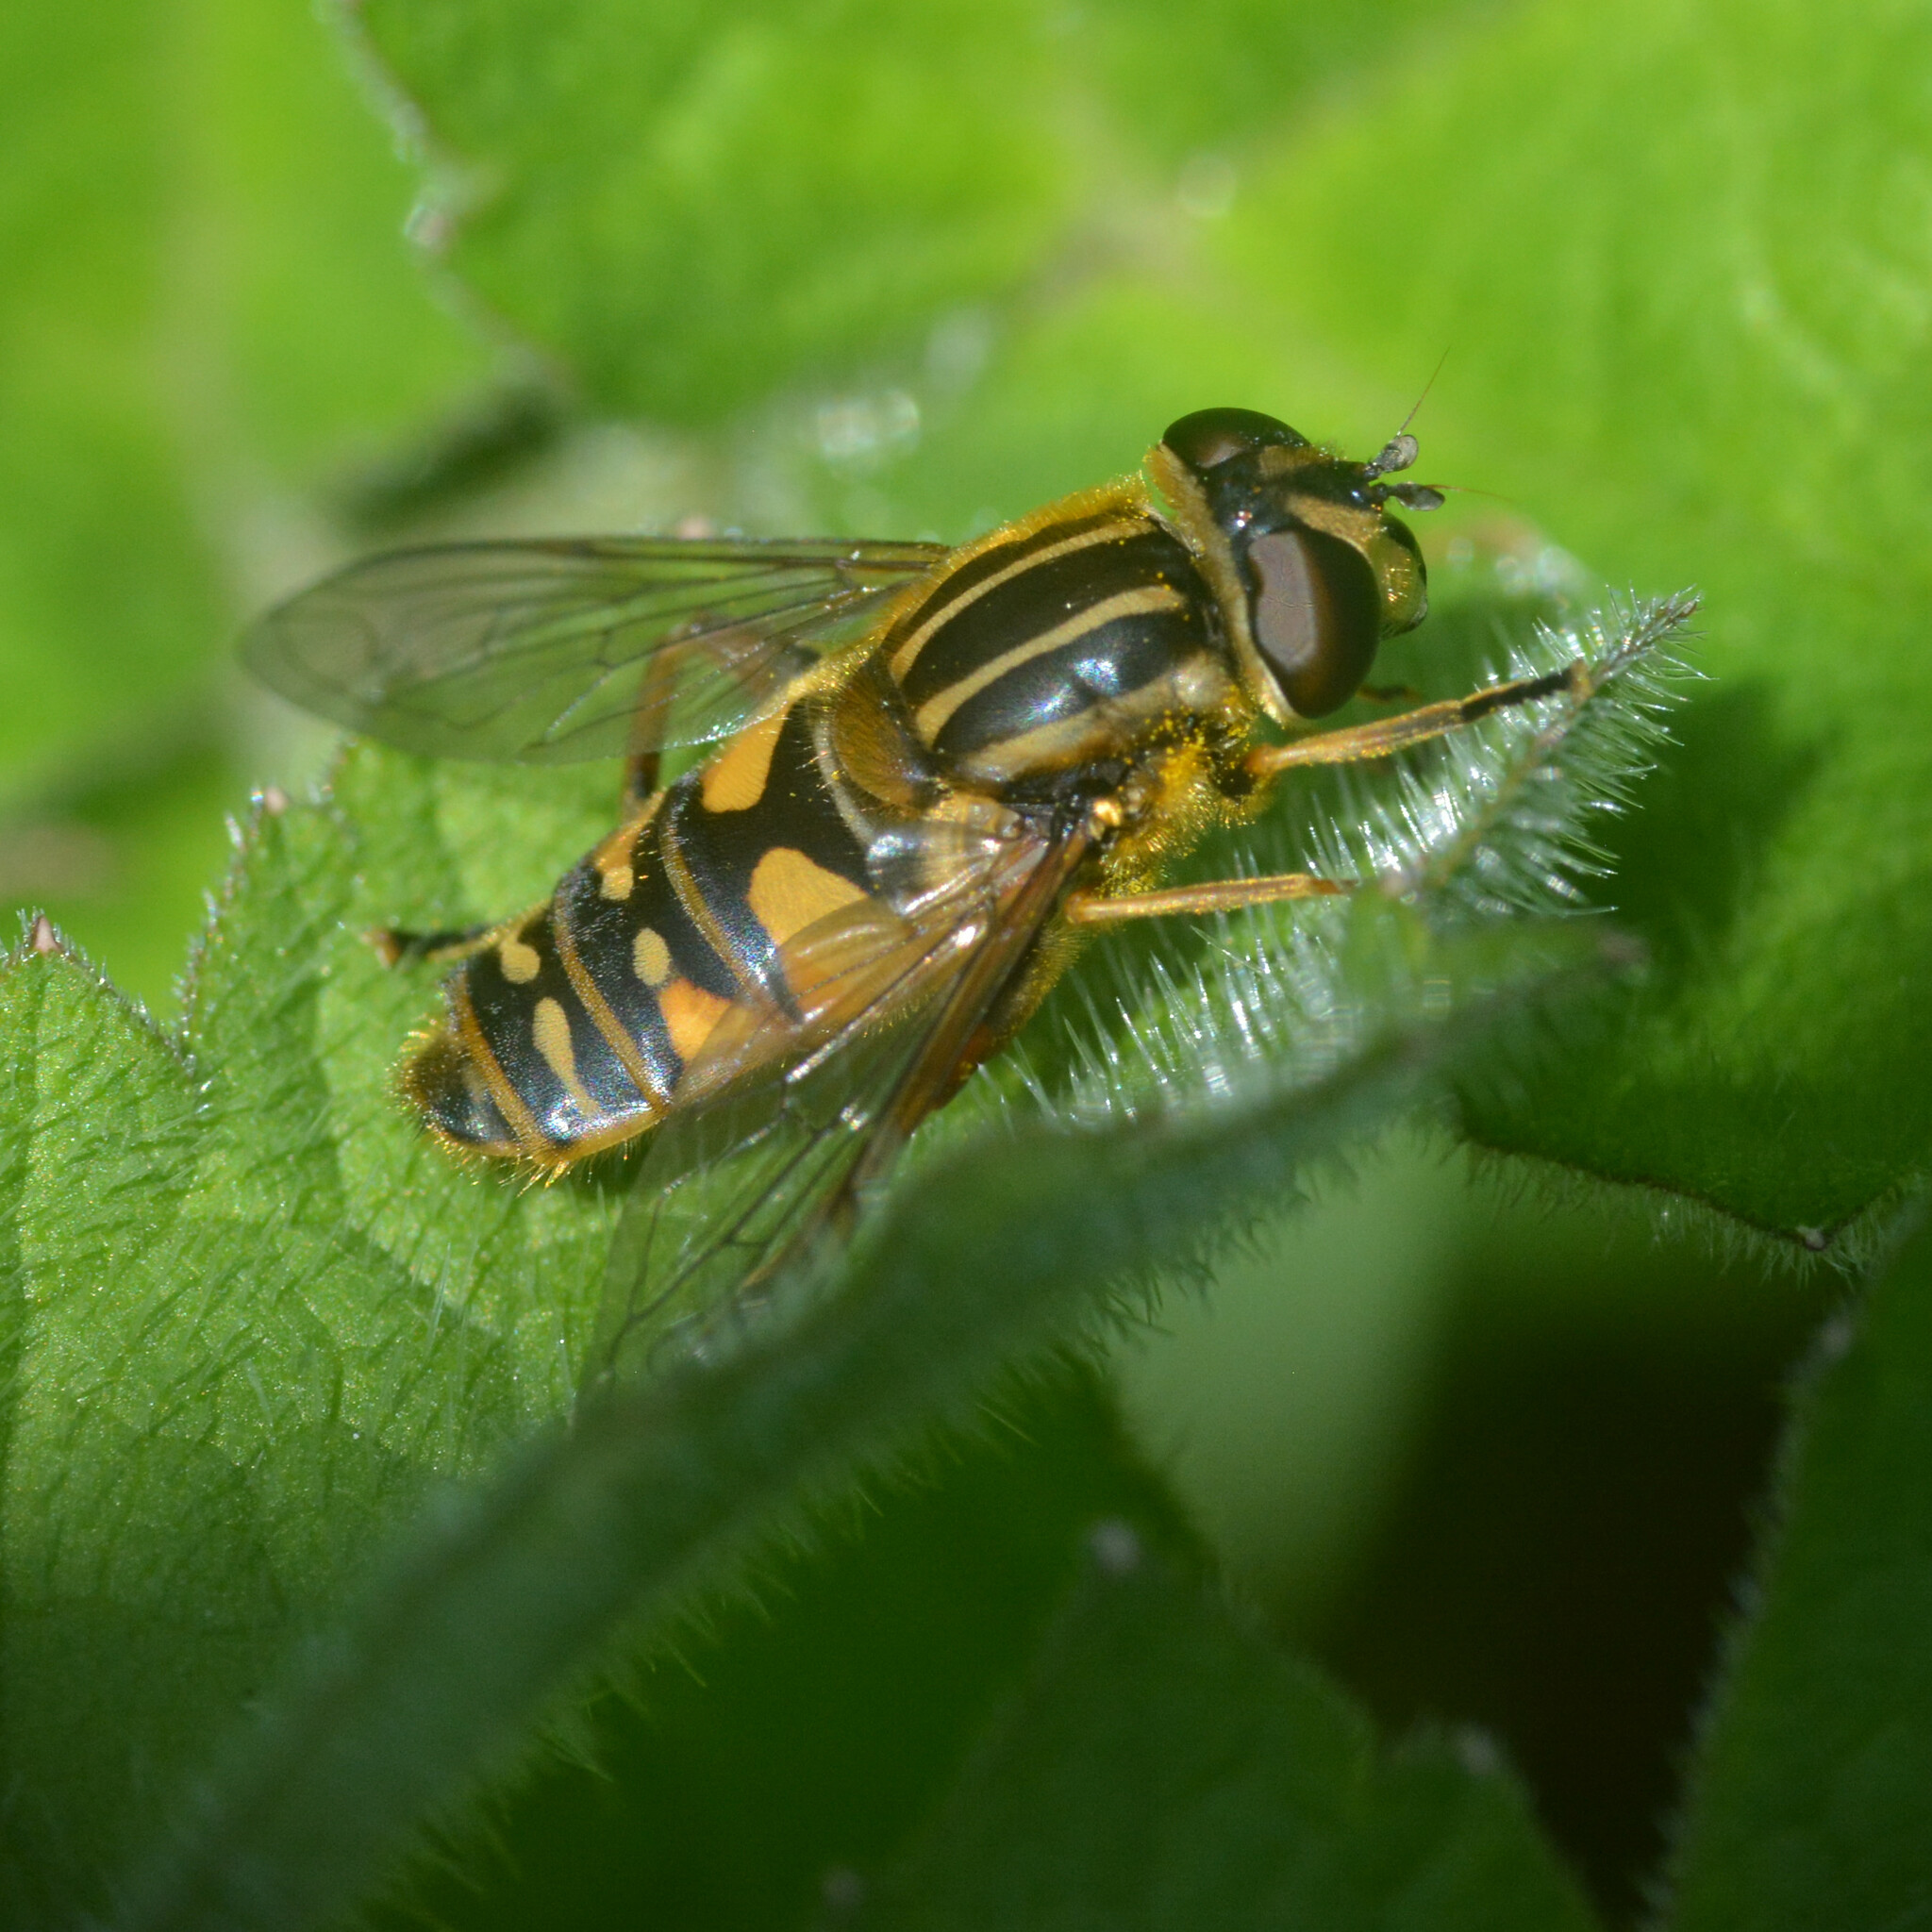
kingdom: Animalia
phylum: Arthropoda
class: Insecta
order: Diptera
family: Syrphidae
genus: Helophilus
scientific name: Helophilus pendulus
